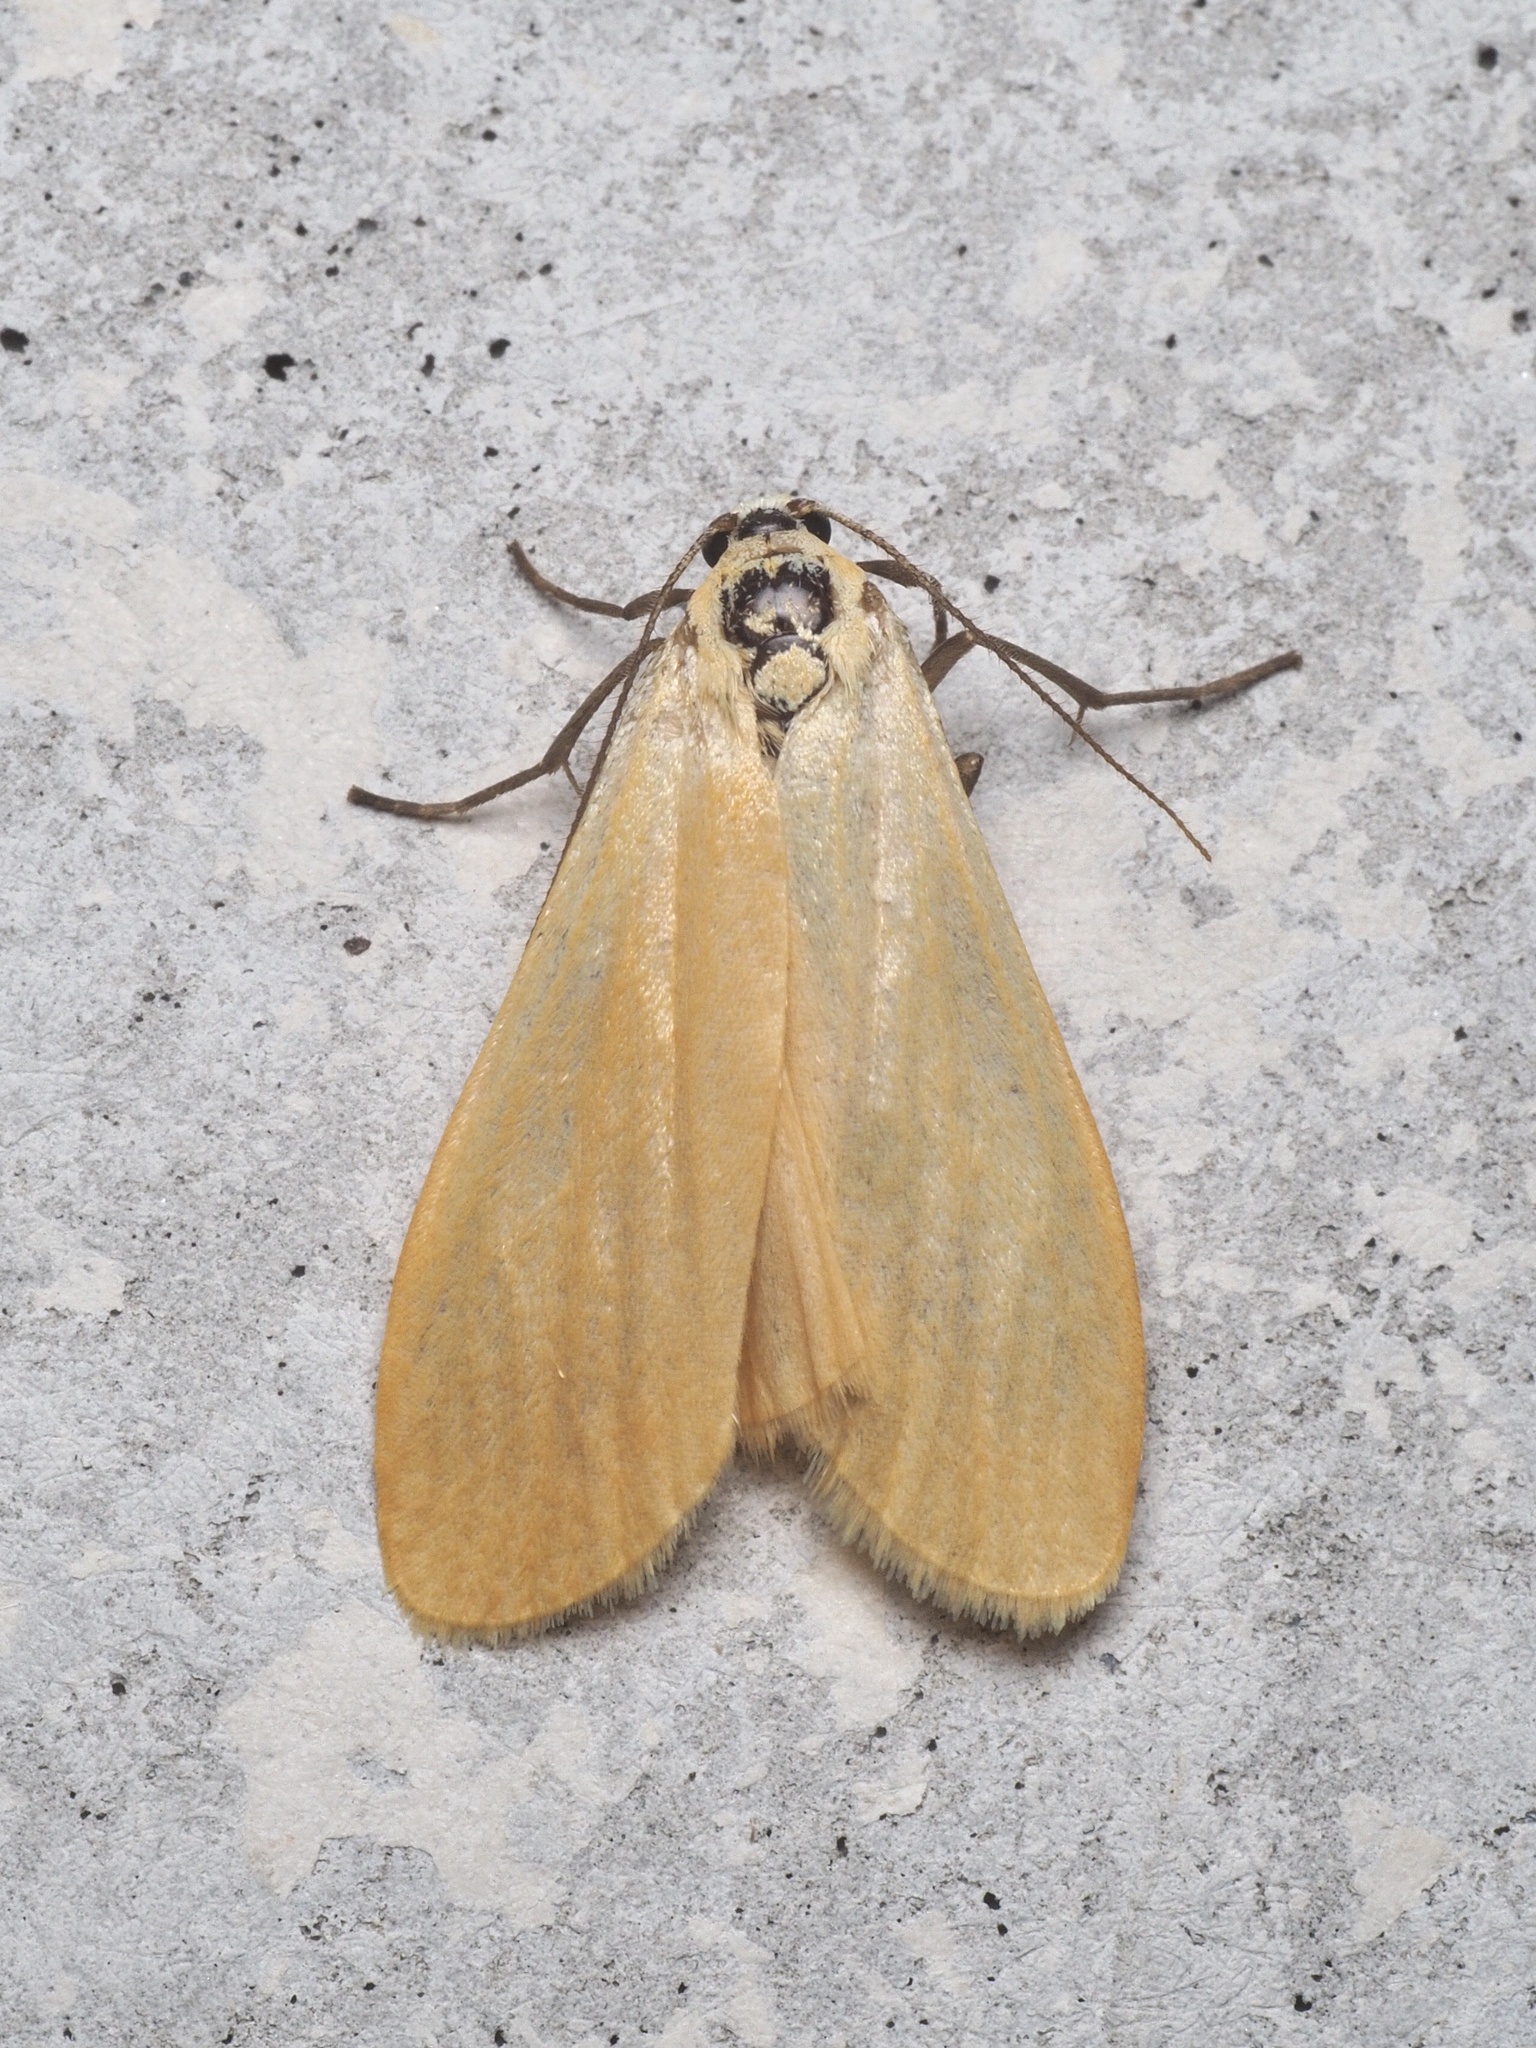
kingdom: Animalia
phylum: Arthropoda
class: Insecta
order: Lepidoptera
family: Erebidae
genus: Wittia
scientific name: Wittia sororcula
